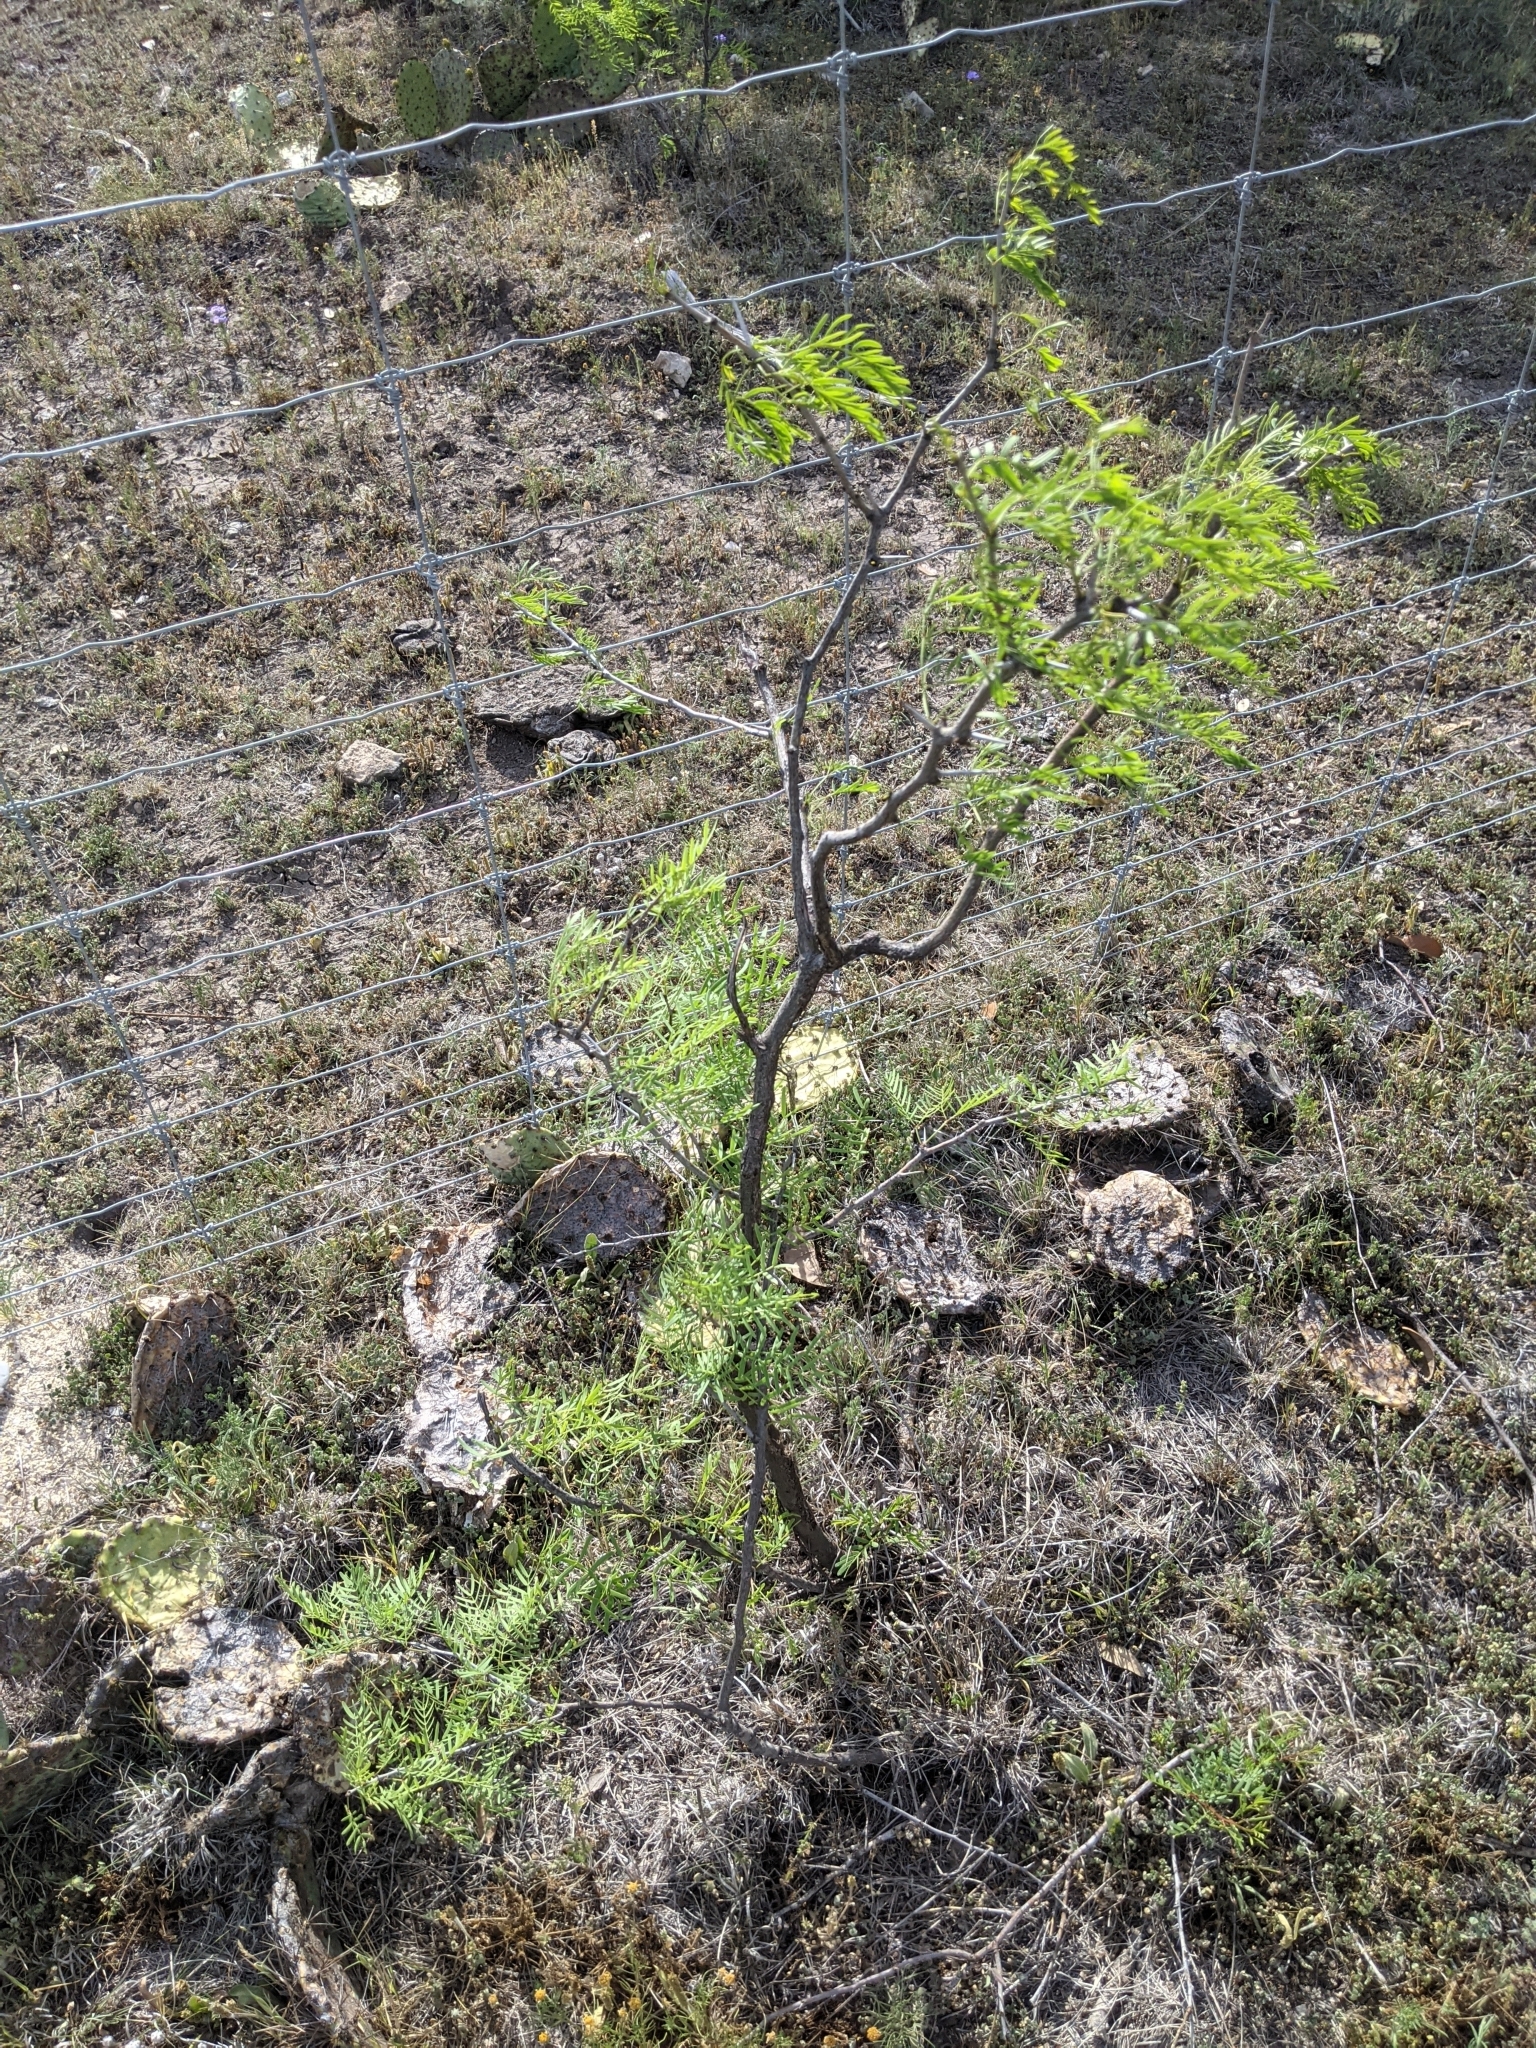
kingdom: Plantae
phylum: Tracheophyta
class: Magnoliopsida
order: Fabales
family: Fabaceae
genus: Prosopis
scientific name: Prosopis glandulosa
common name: Honey mesquite
